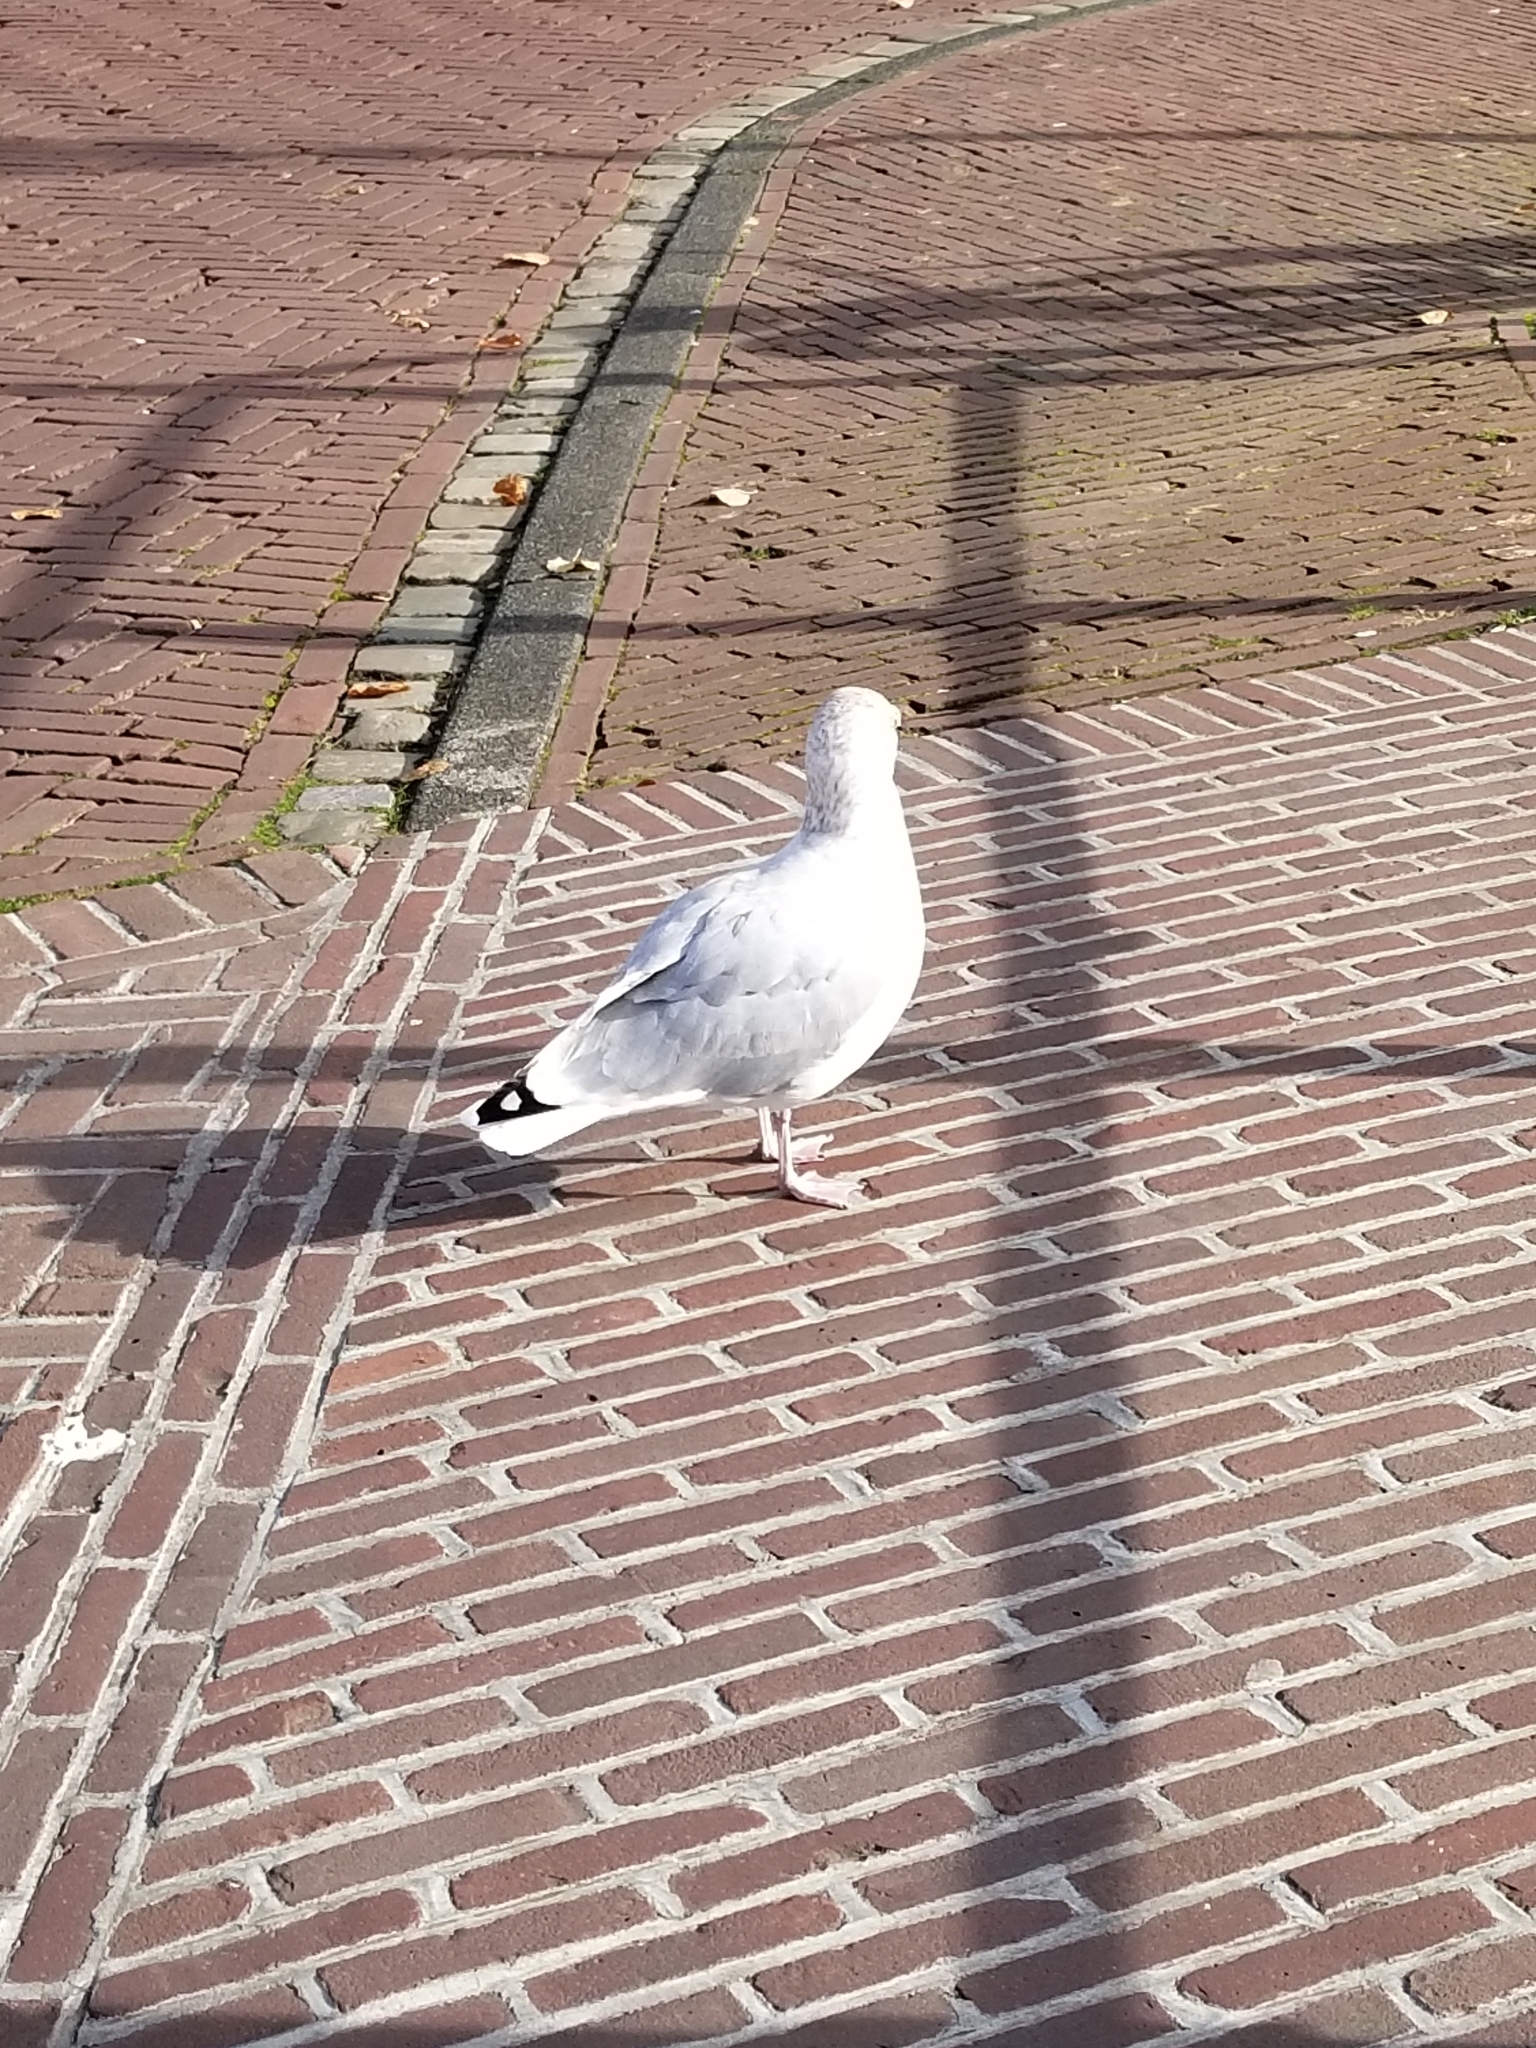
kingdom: Animalia
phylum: Chordata
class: Aves
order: Charadriiformes
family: Laridae
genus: Larus
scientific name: Larus argentatus
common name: Herring gull
